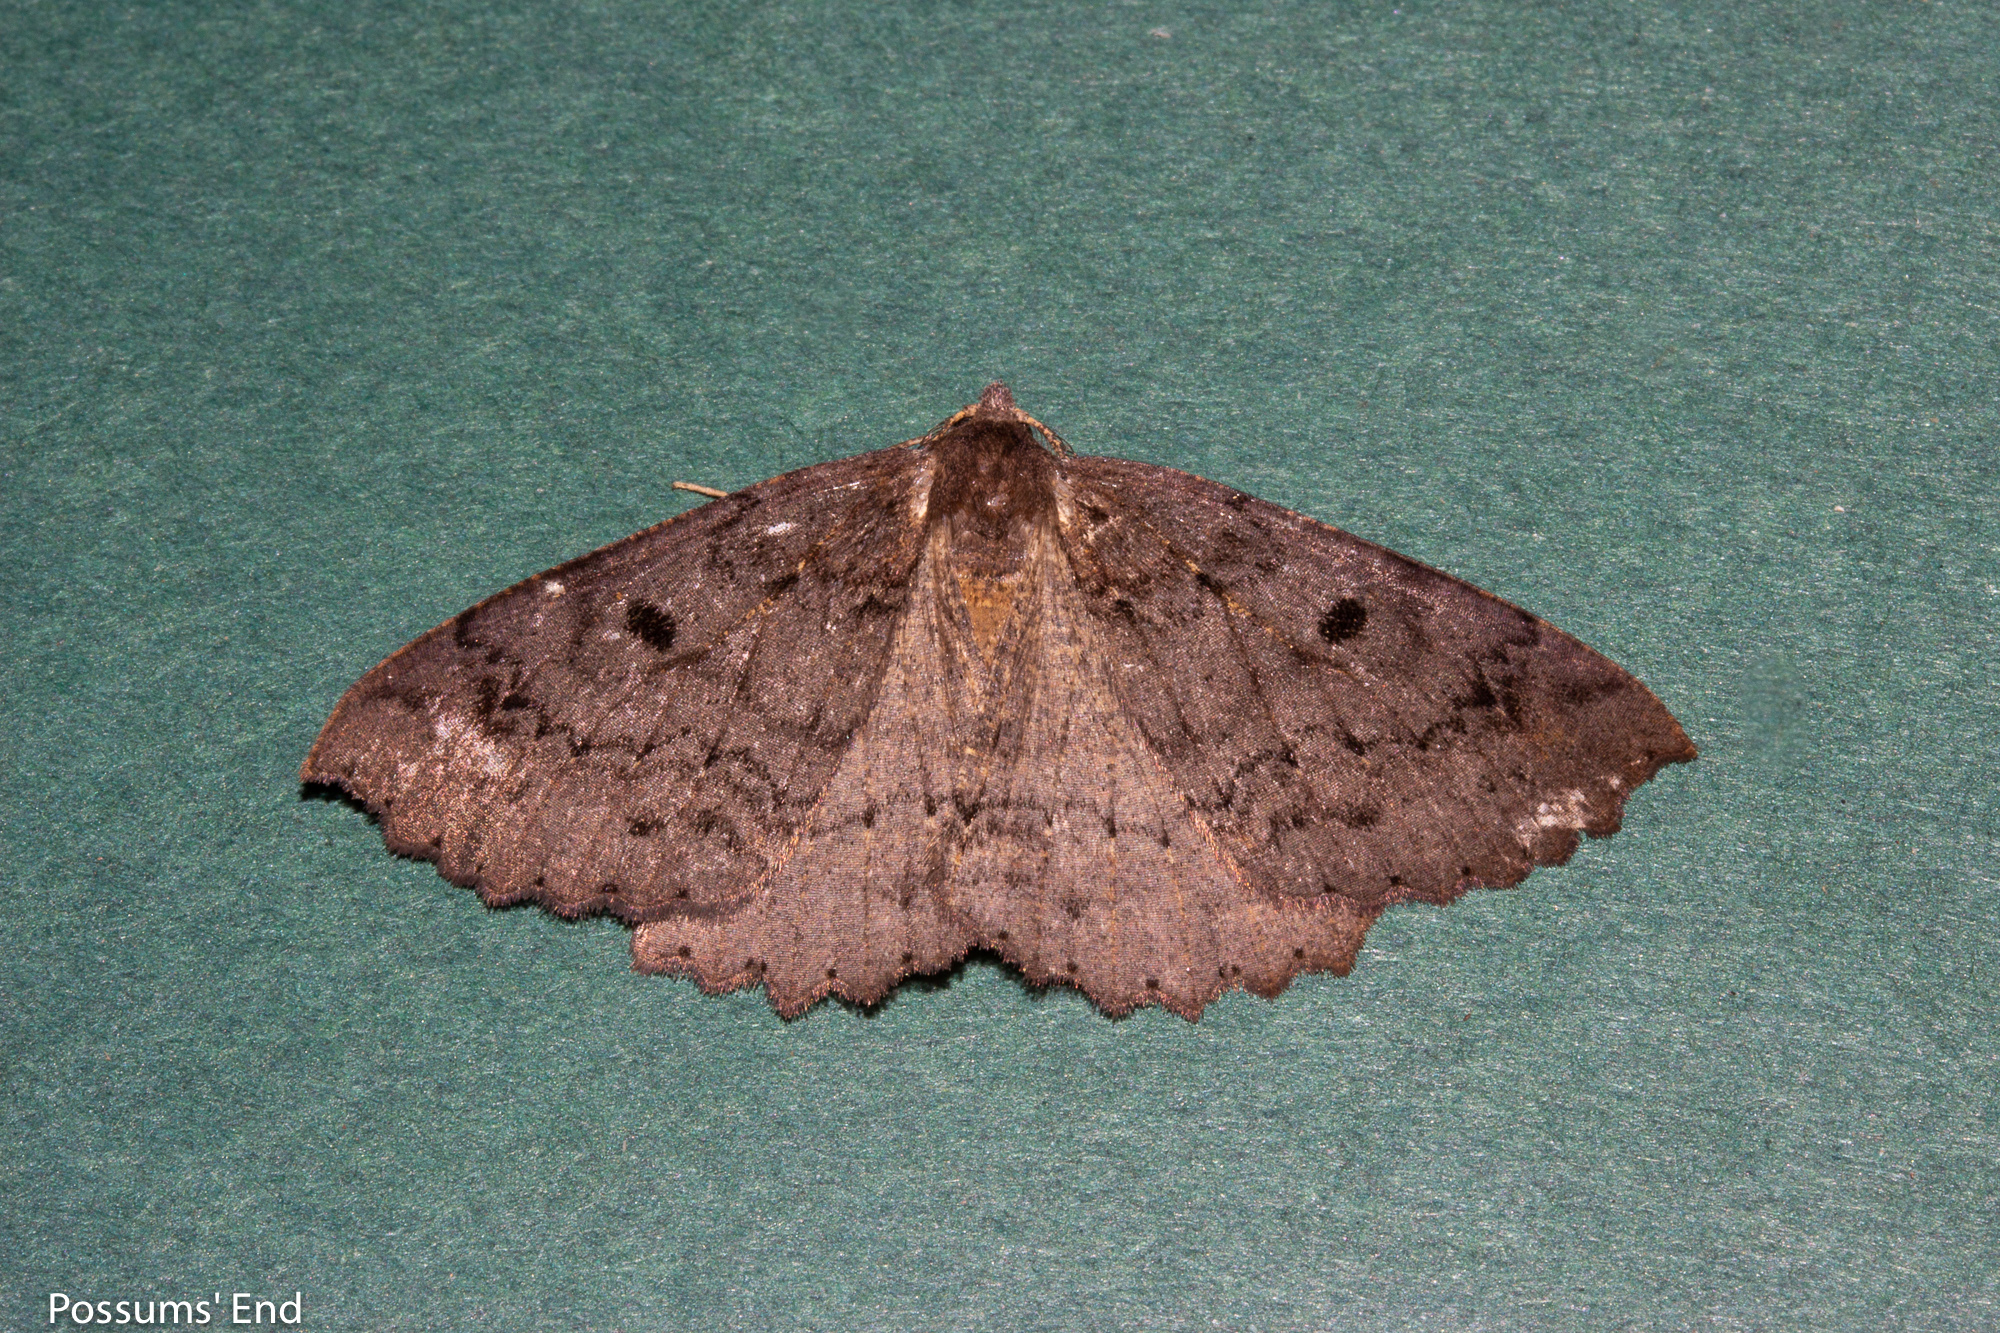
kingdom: Animalia
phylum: Arthropoda
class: Insecta
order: Lepidoptera
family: Geometridae
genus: Cleora
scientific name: Cleora scriptaria
